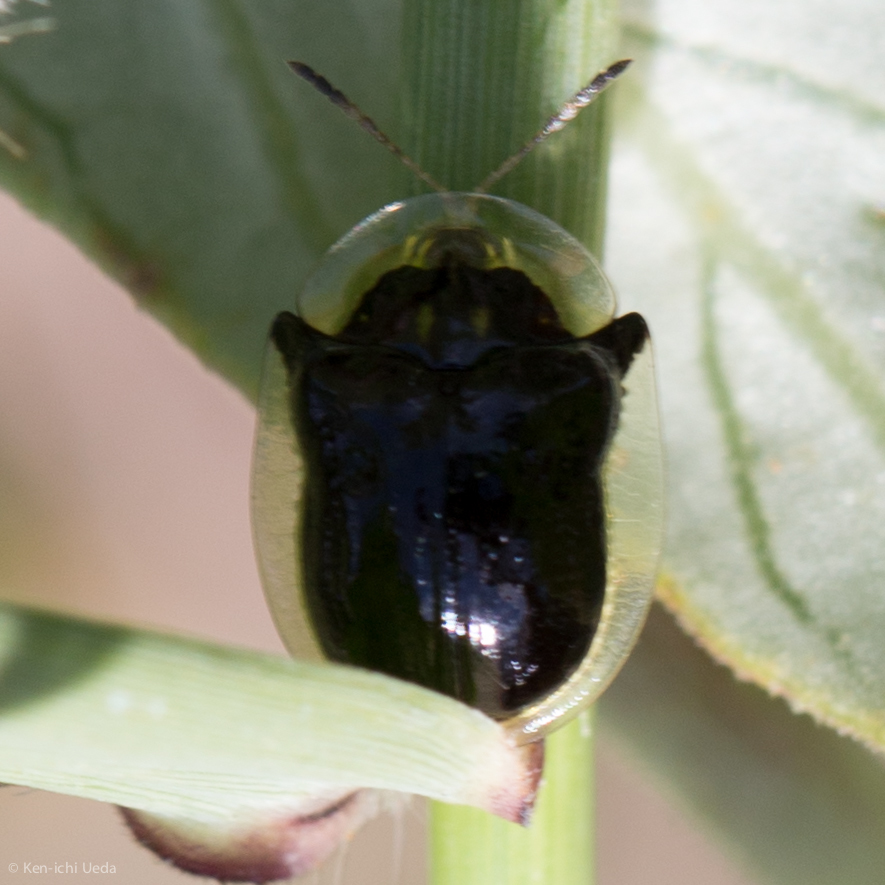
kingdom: Animalia
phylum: Arthropoda
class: Insecta
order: Coleoptera
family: Chrysomelidae
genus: Deloyala
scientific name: Deloyala lecontei
